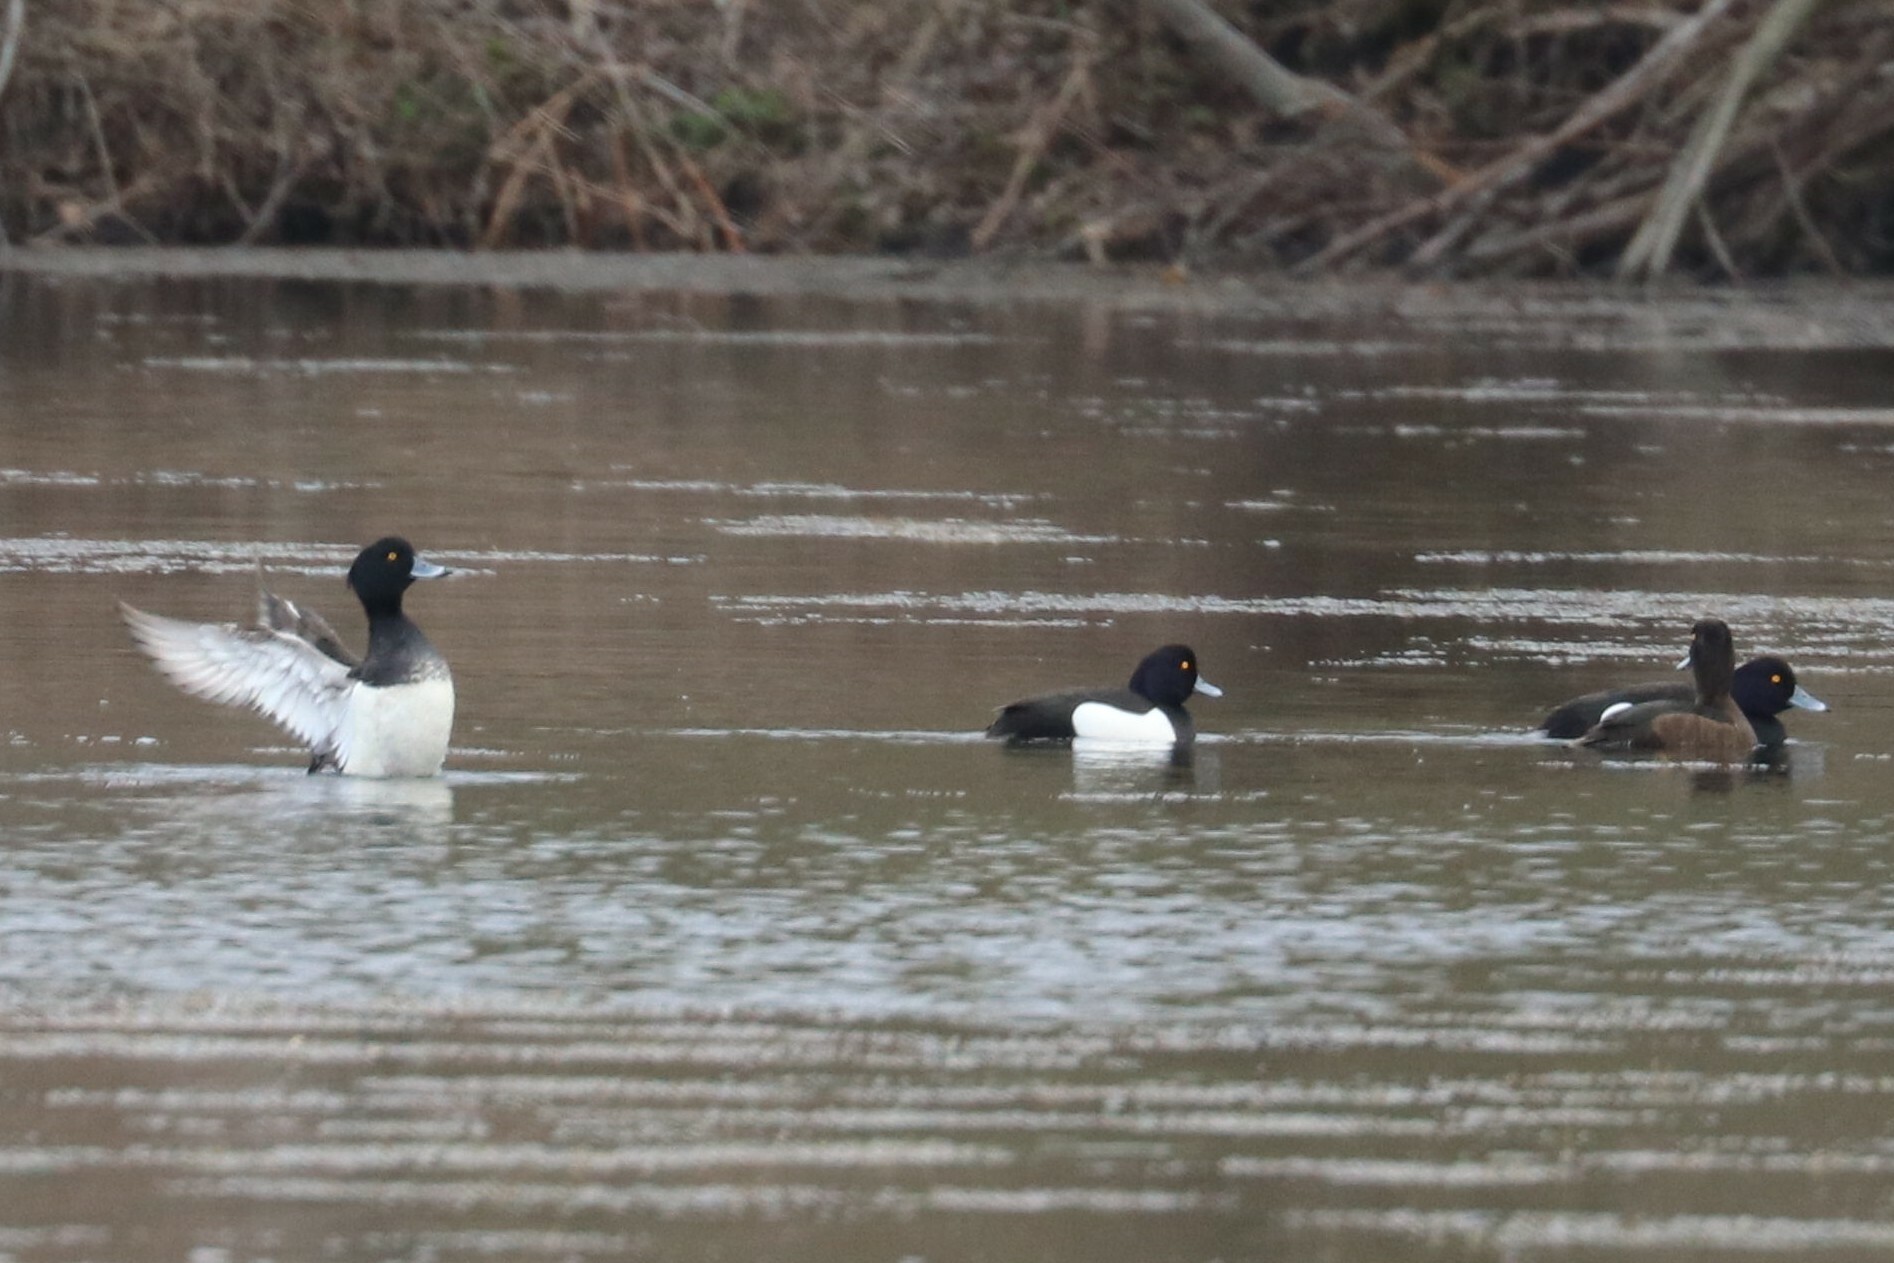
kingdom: Animalia
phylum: Chordata
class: Aves
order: Anseriformes
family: Anatidae
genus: Aythya
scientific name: Aythya fuligula
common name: Tufted duck
